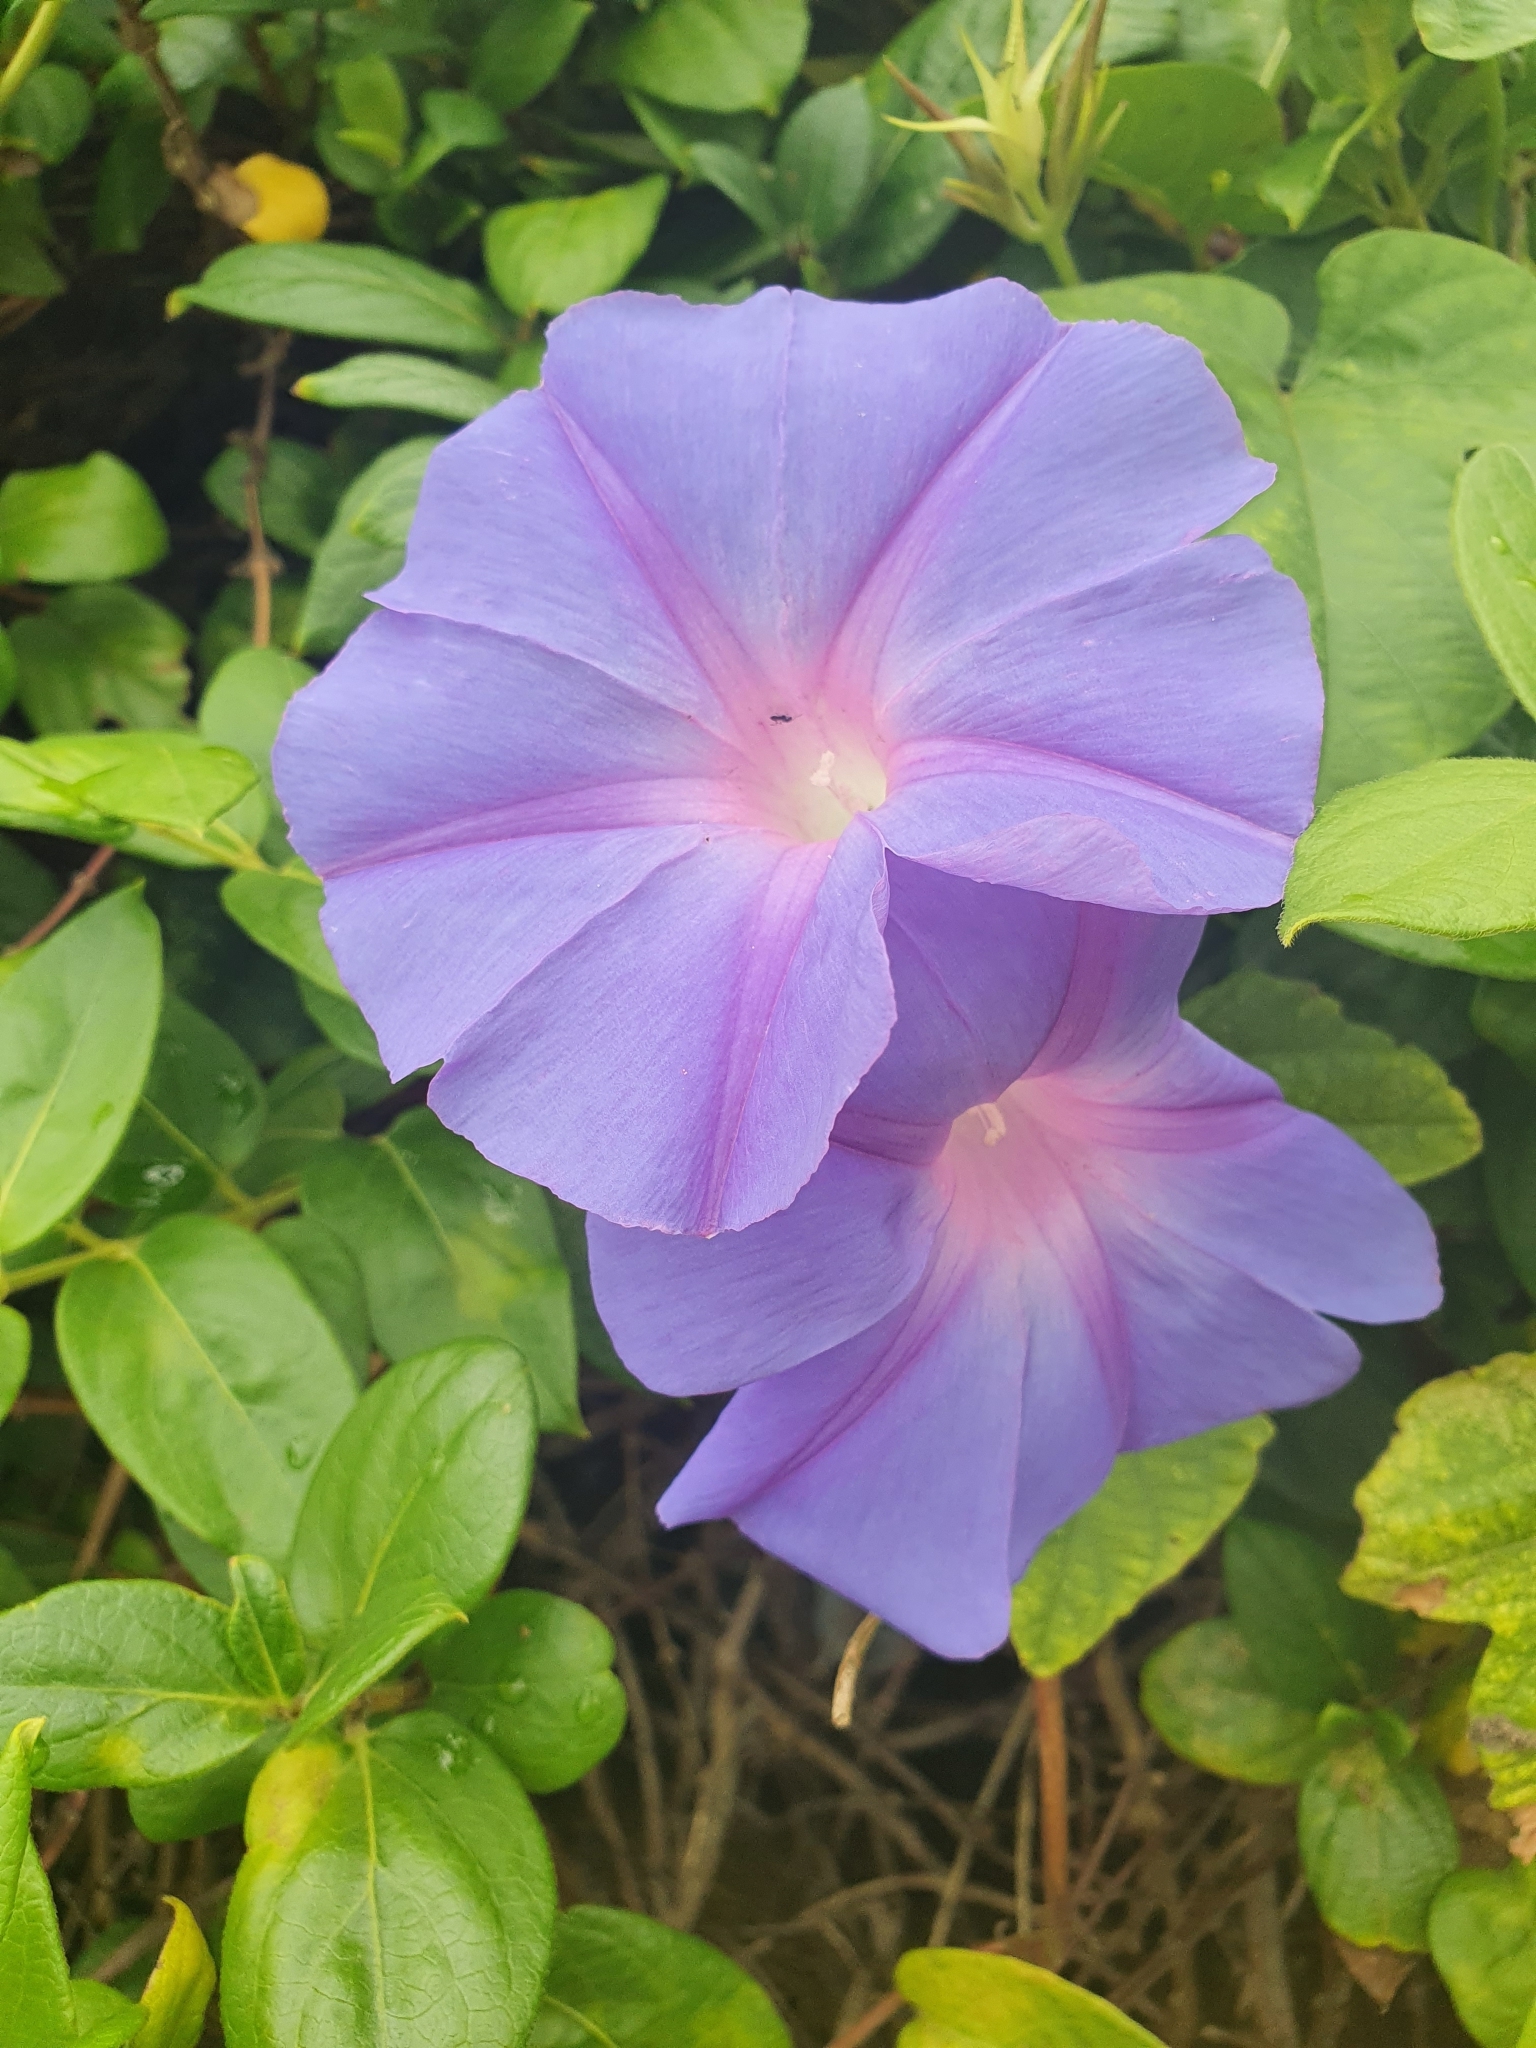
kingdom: Plantae
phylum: Tracheophyta
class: Magnoliopsida
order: Solanales
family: Convolvulaceae
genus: Ipomoea
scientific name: Ipomoea indica
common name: Blue dawnflower
